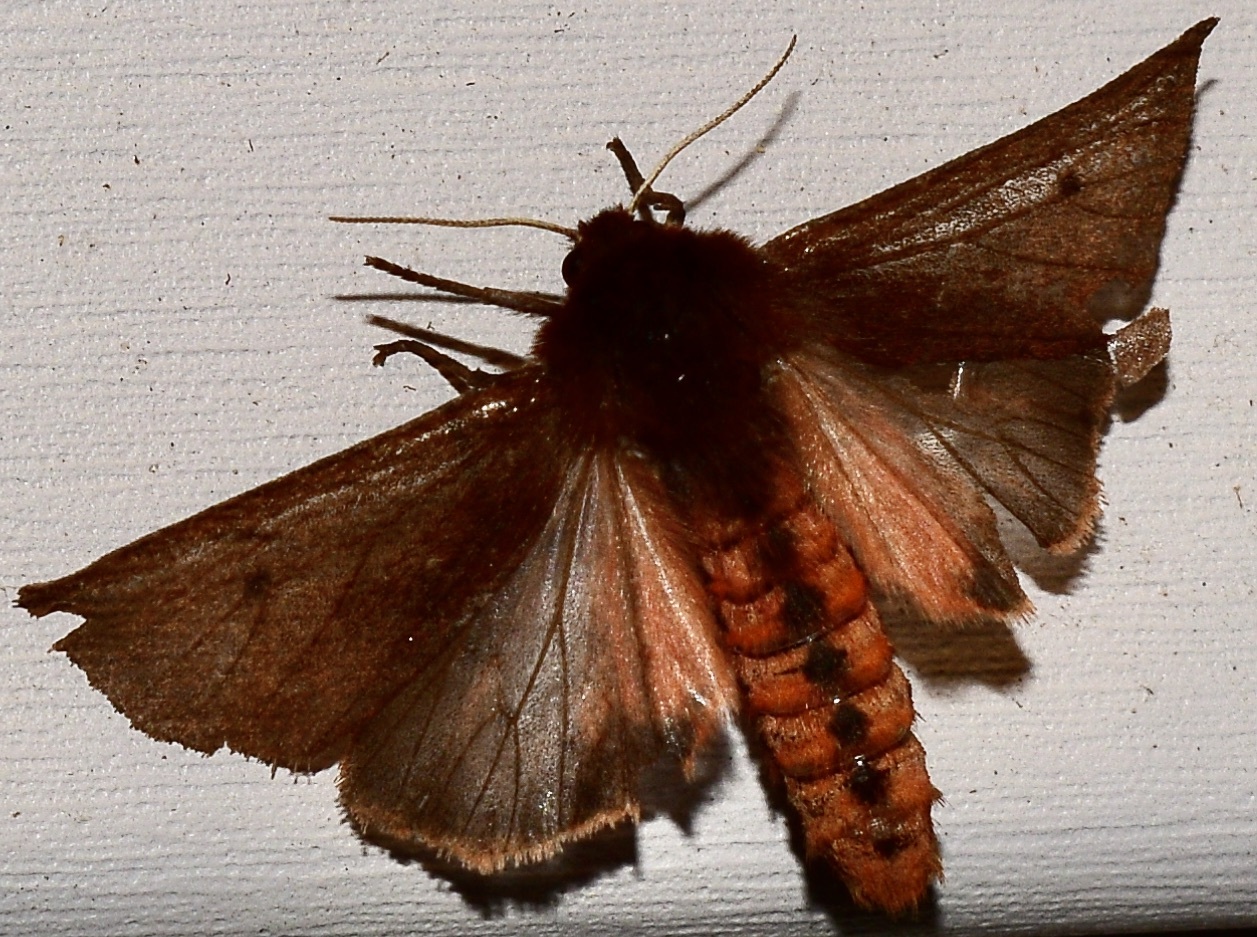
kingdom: Animalia
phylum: Arthropoda
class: Insecta
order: Lepidoptera
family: Erebidae
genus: Phragmatobia
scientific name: Phragmatobia fuliginosa
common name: Ruby tiger
